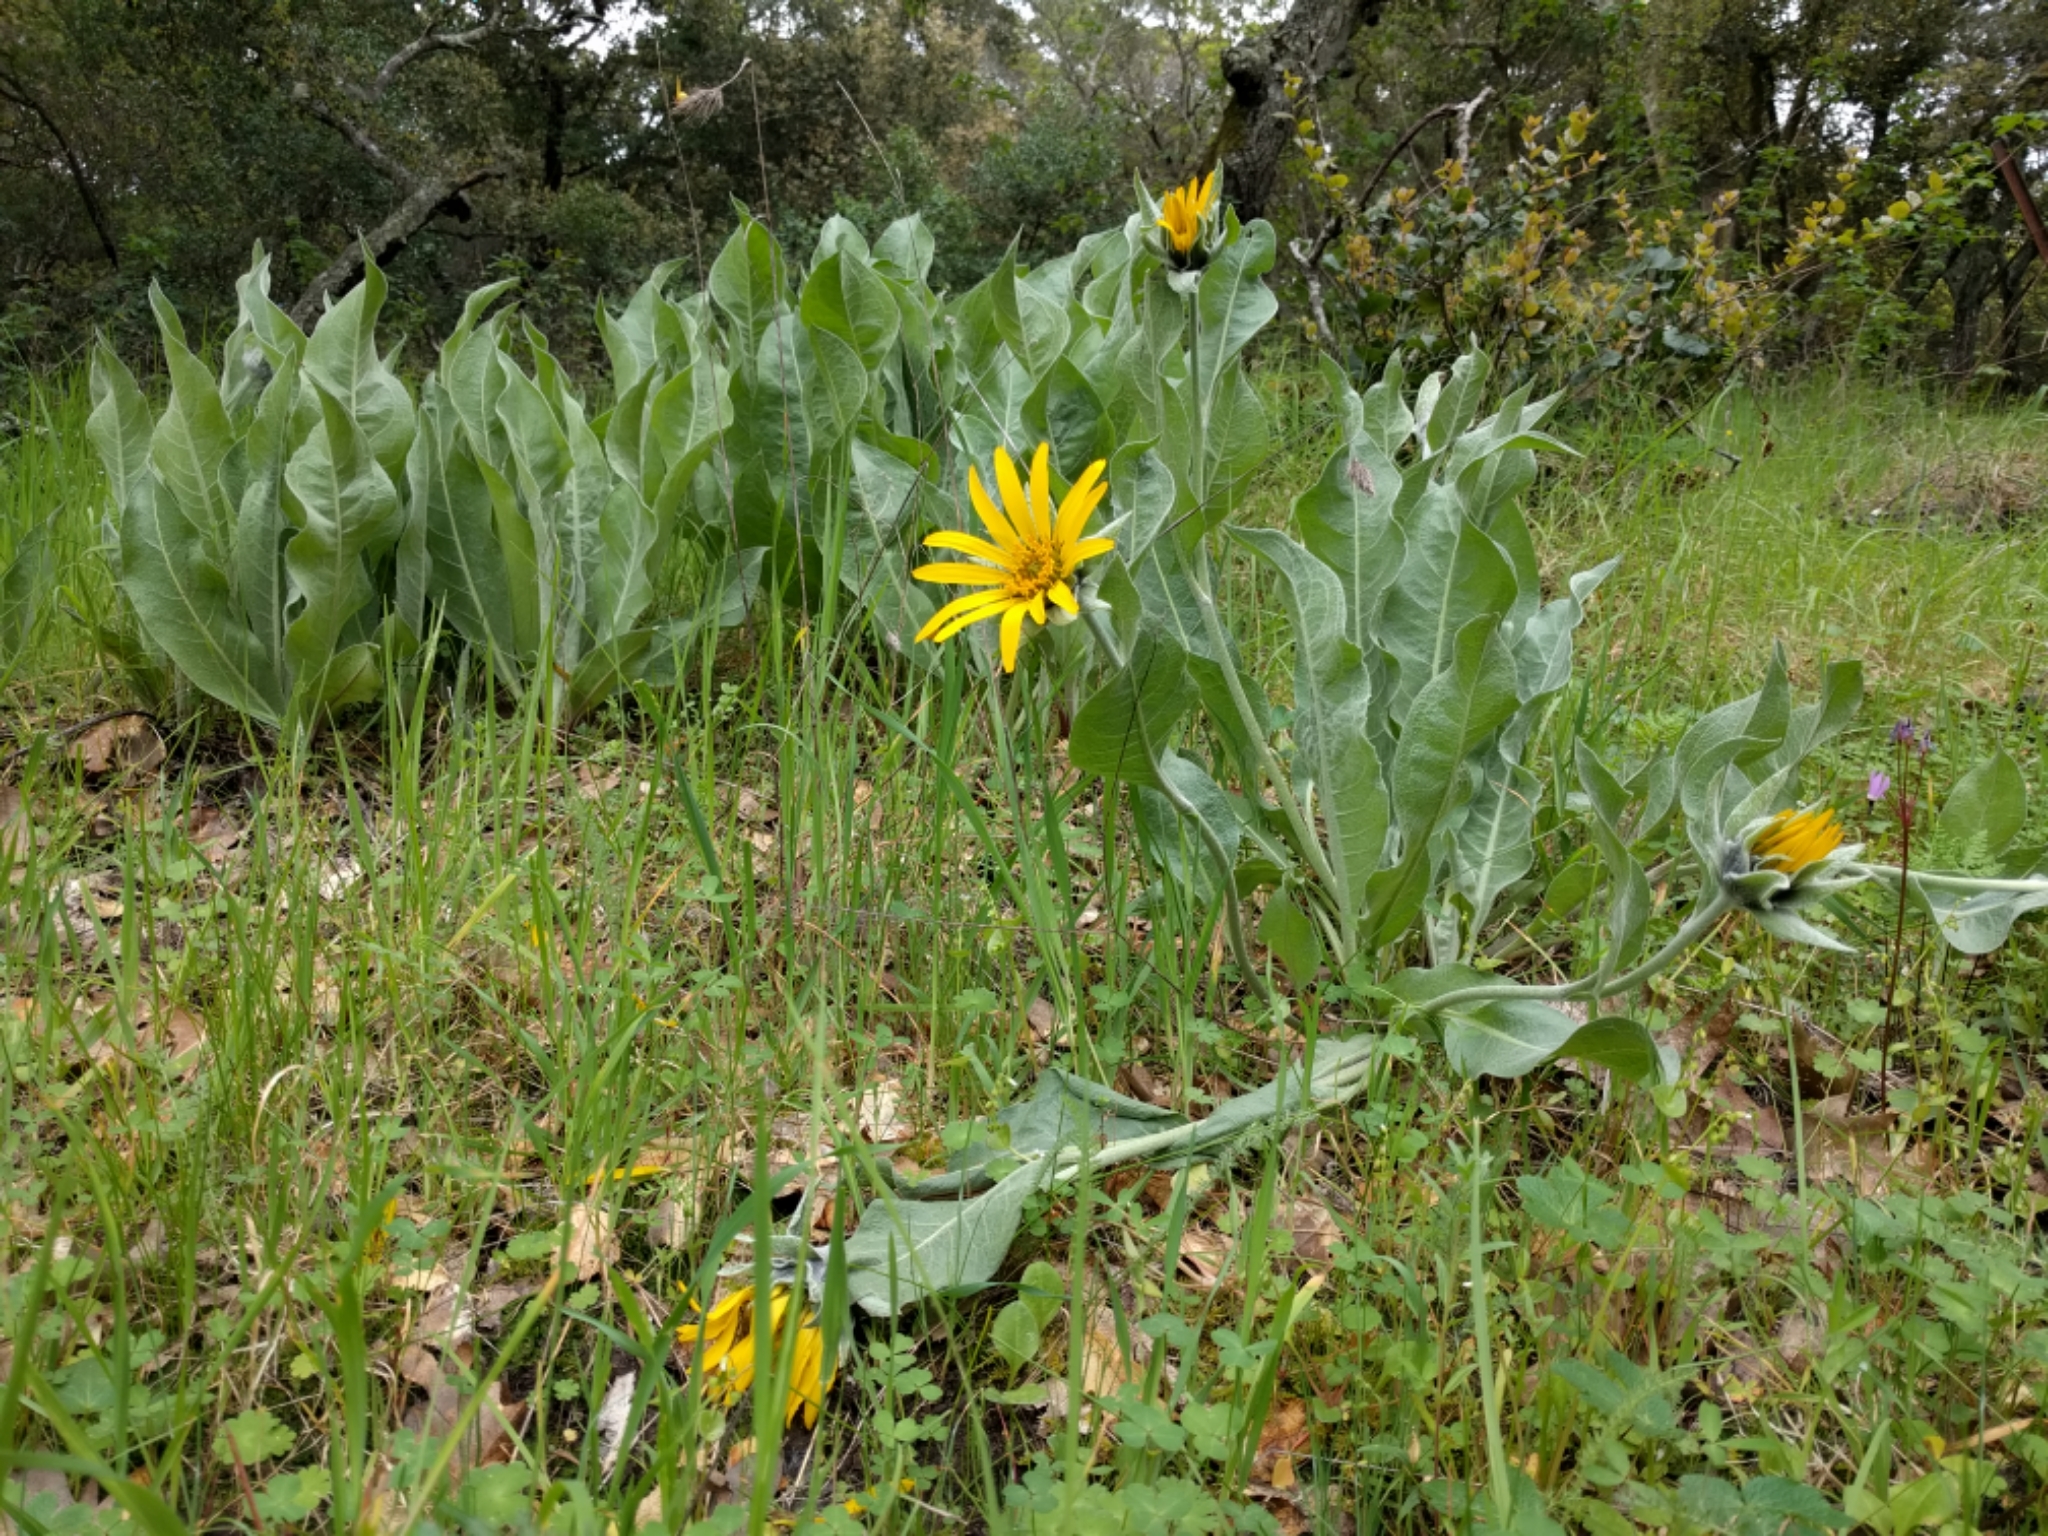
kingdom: Plantae
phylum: Tracheophyta
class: Magnoliopsida
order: Asterales
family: Asteraceae
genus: Wyethia
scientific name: Wyethia helenioides
